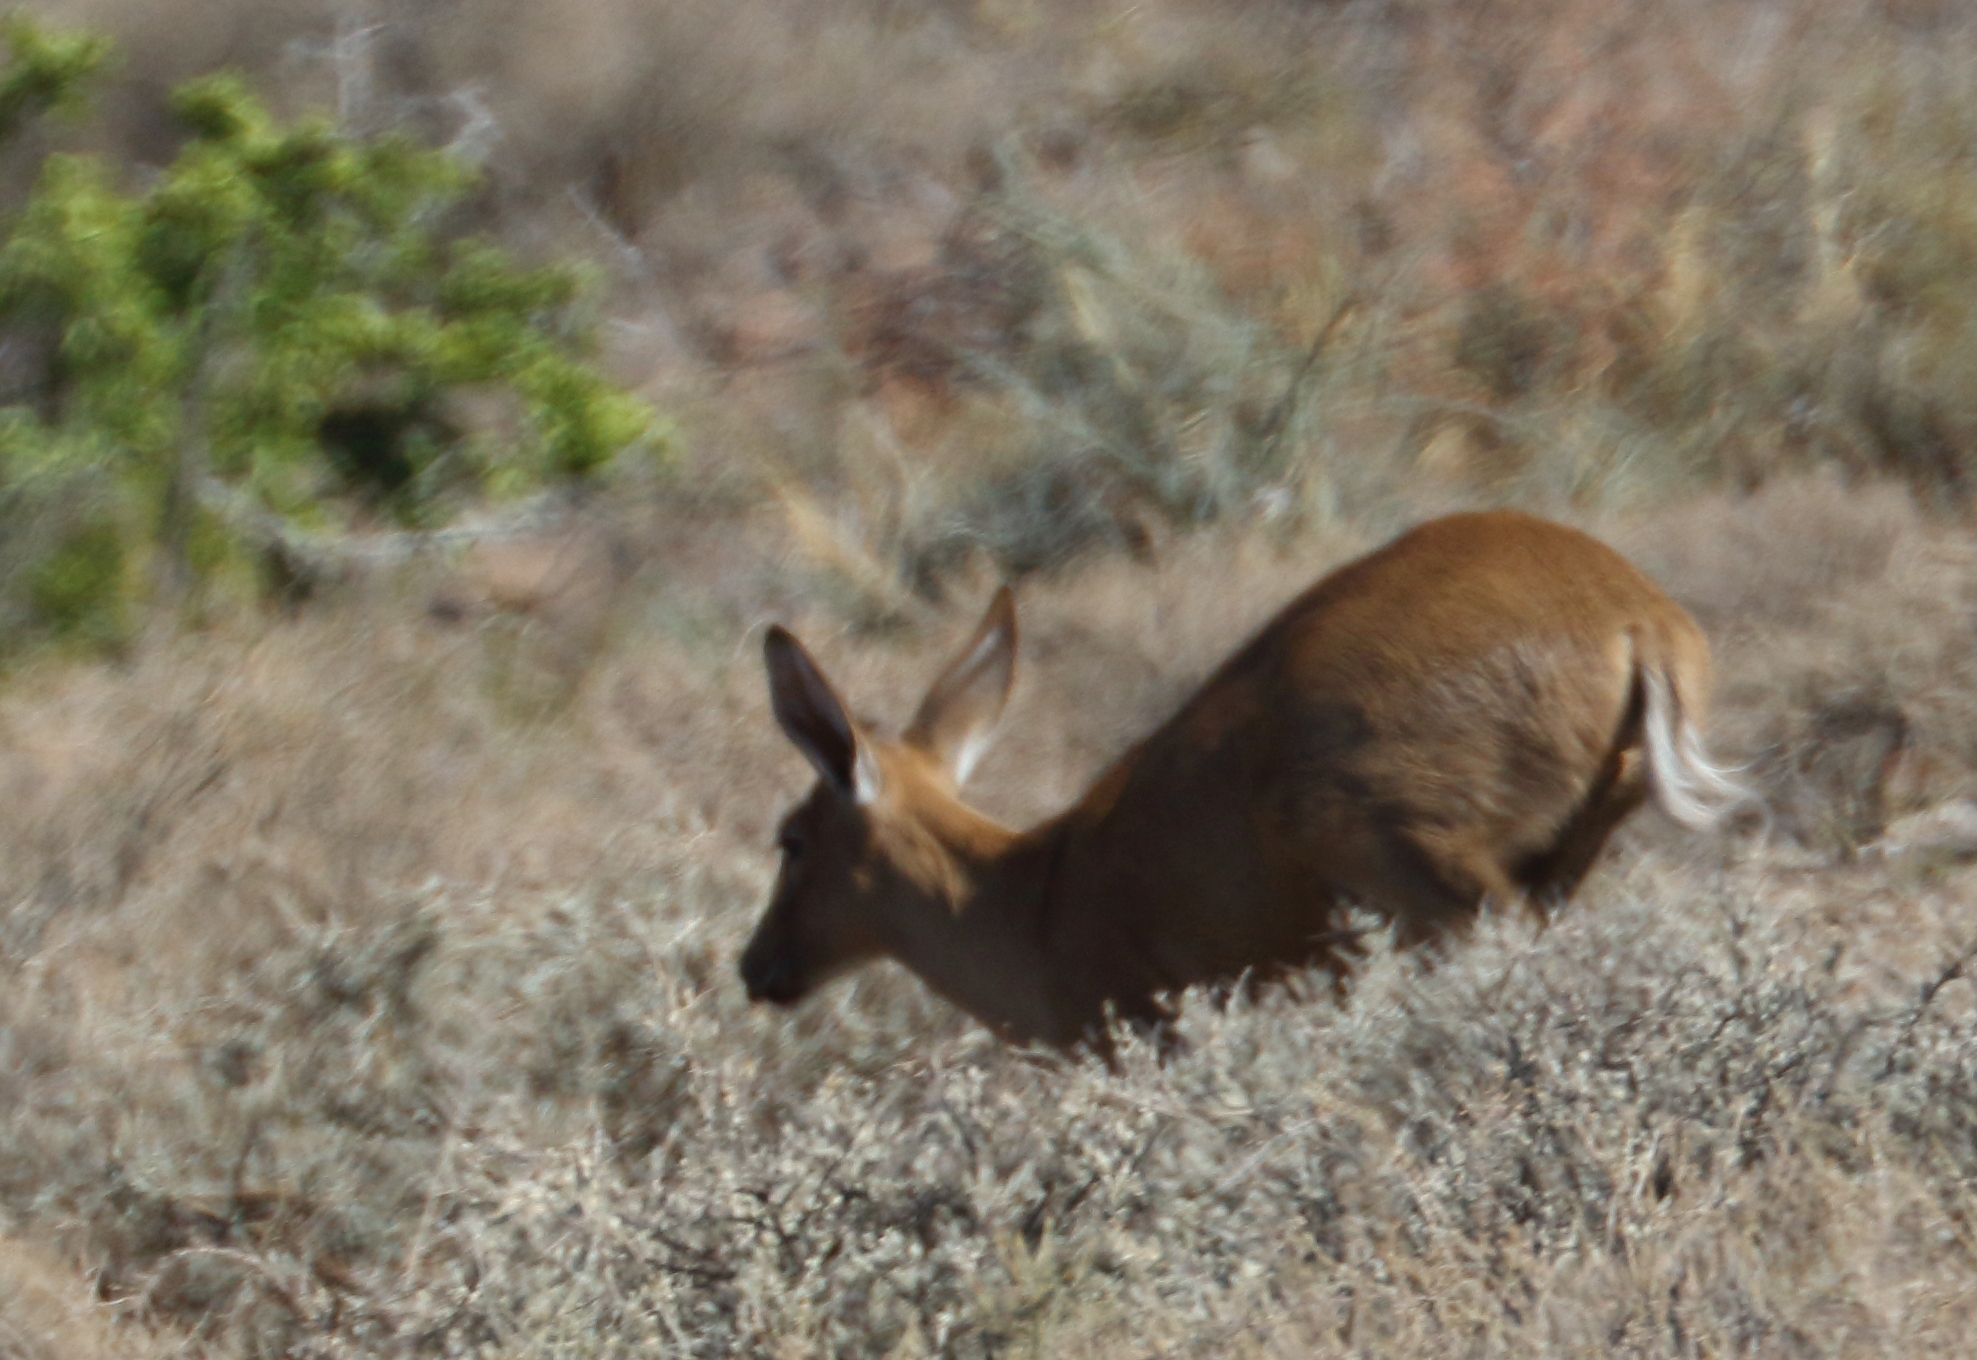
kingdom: Animalia
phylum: Chordata
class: Mammalia
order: Artiodactyla
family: Bovidae
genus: Sylvicapra
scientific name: Sylvicapra grimmia
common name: Bush duiker
